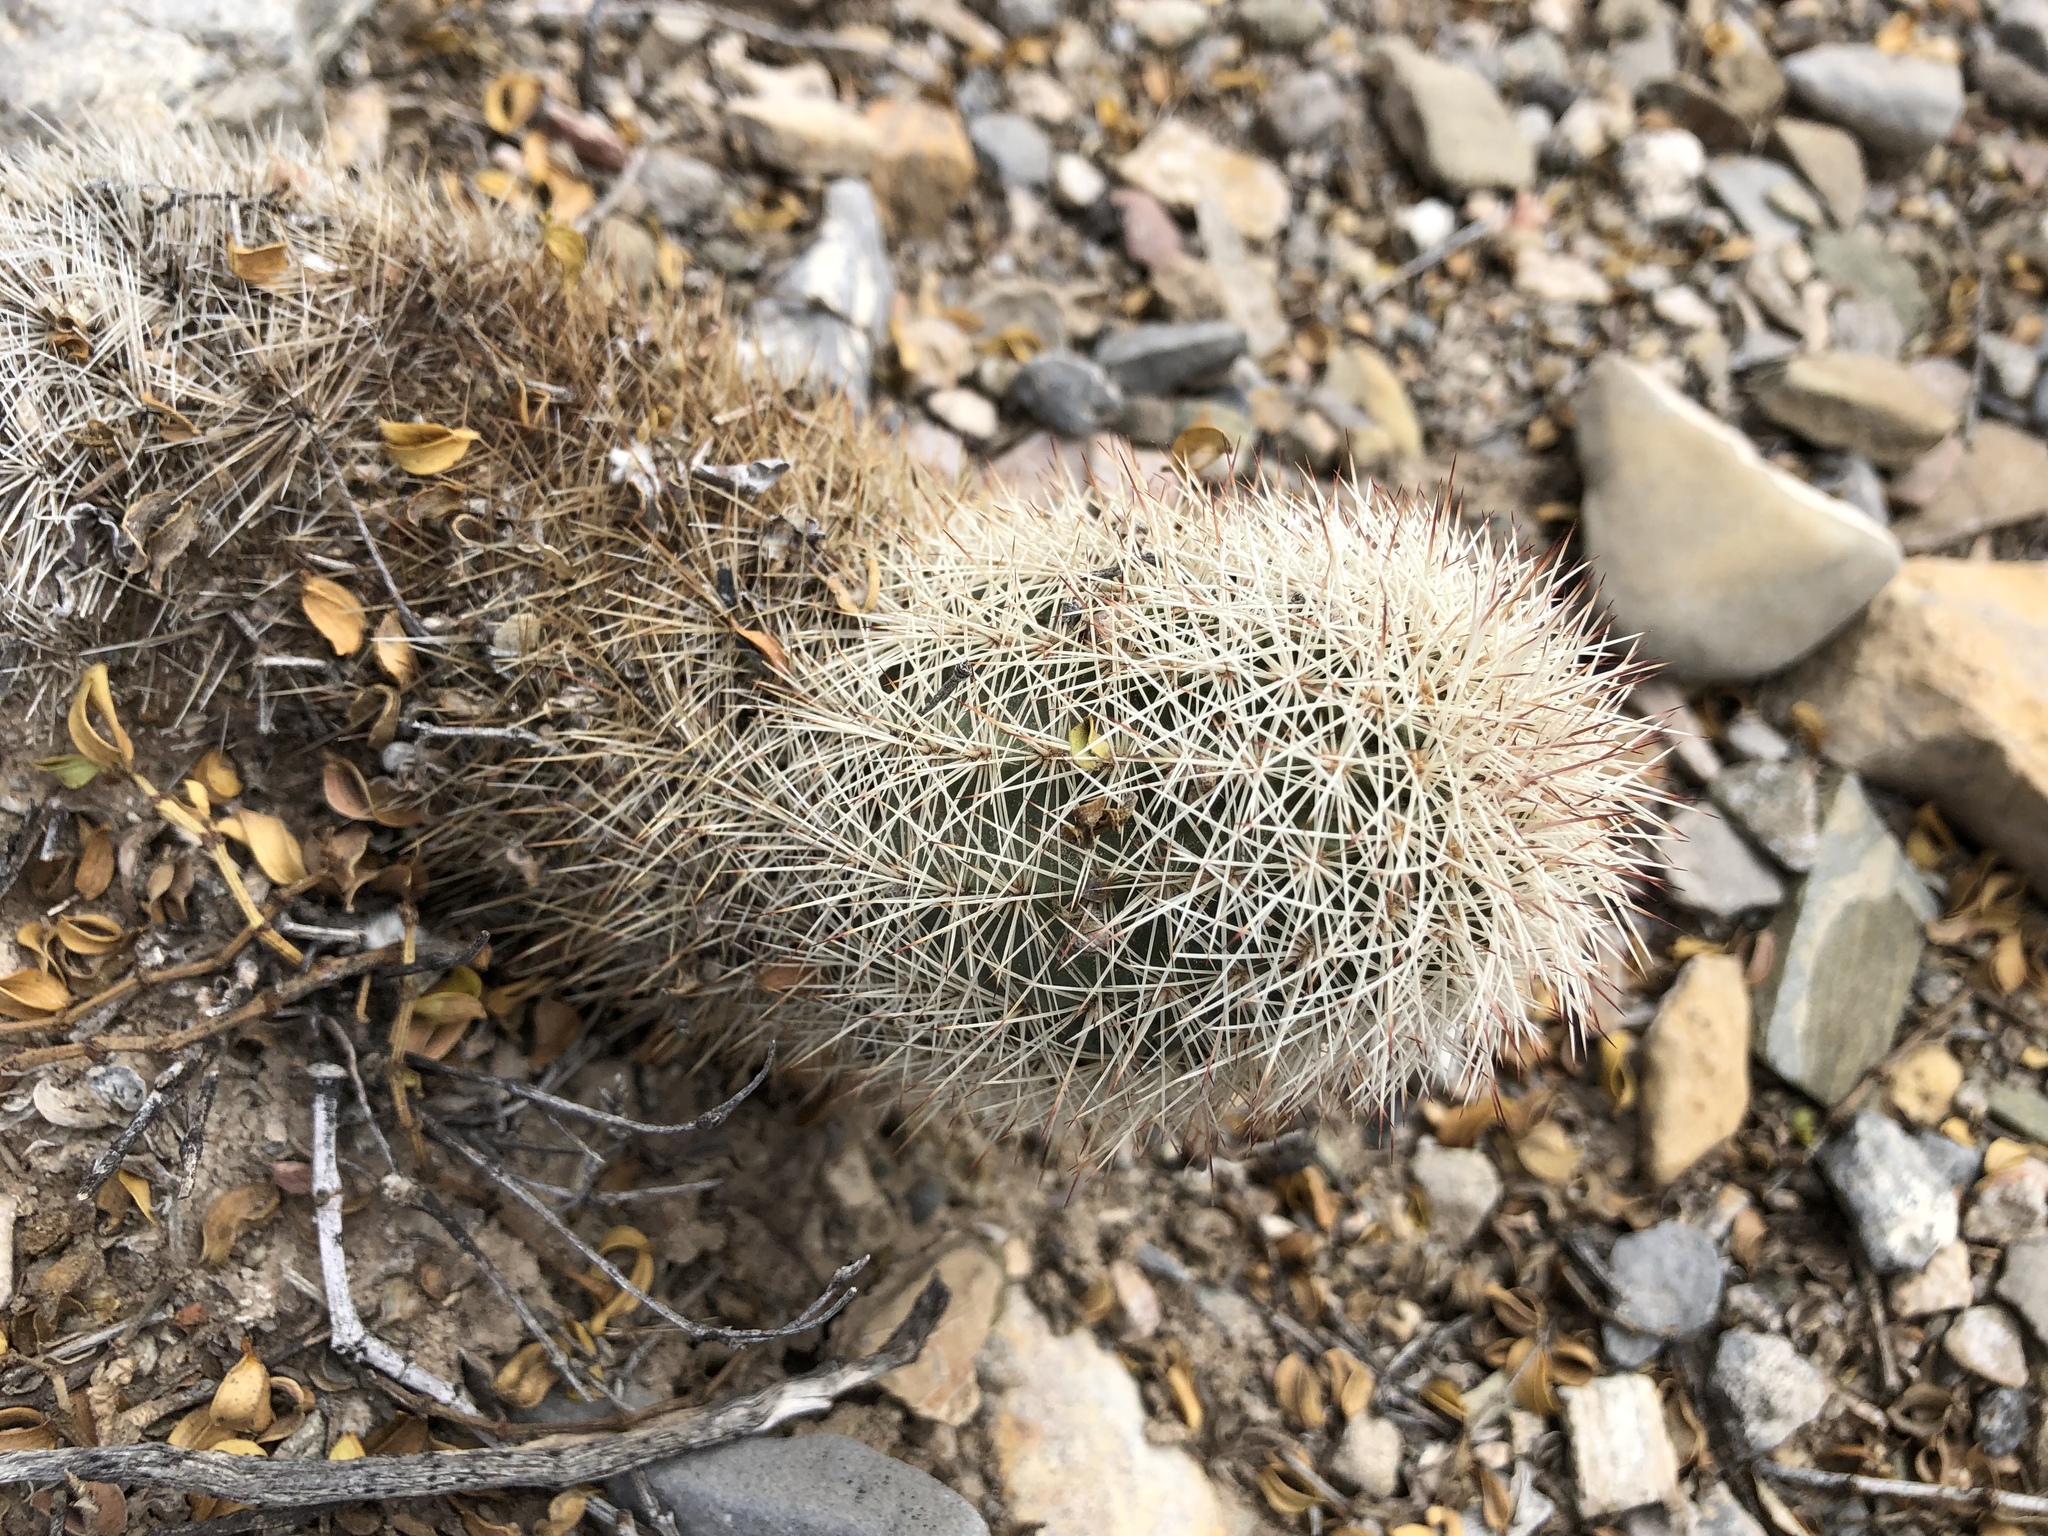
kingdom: Plantae
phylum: Tracheophyta
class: Magnoliopsida
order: Caryophyllales
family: Cactaceae
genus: Echinocereus
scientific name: Echinocereus dasyacanthus
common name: Spiny hedgehog cactus
